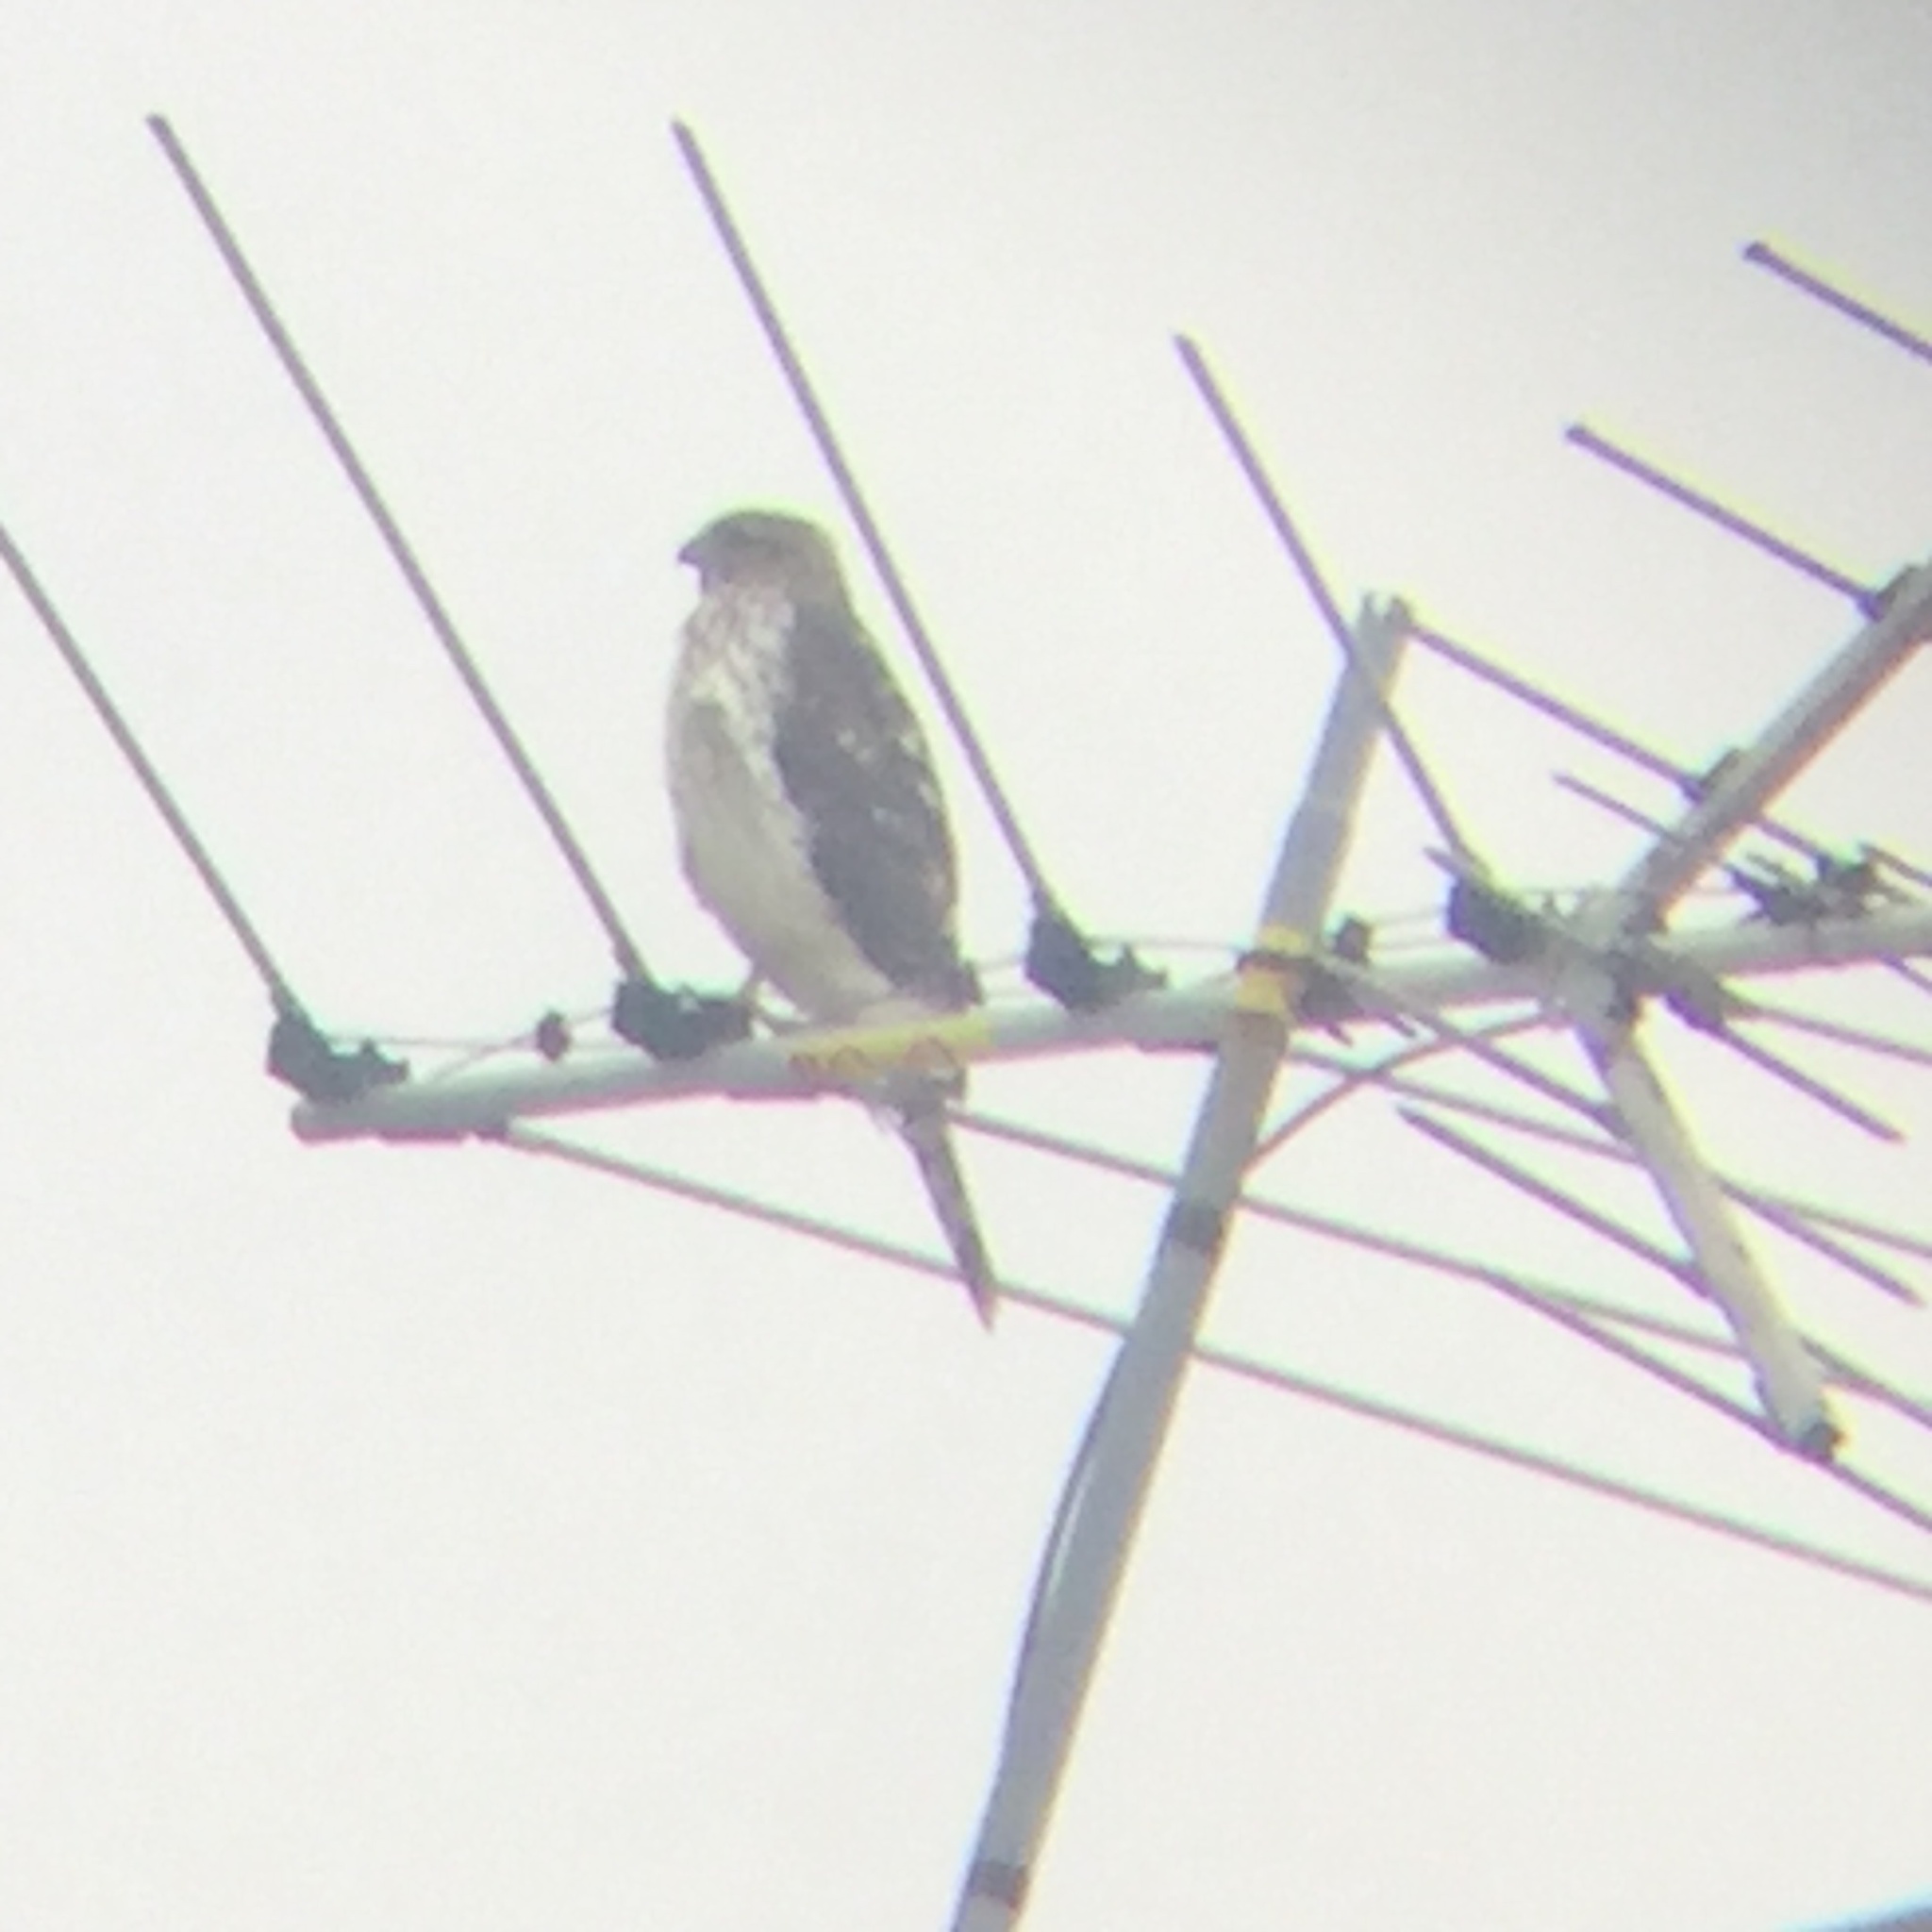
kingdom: Animalia
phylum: Chordata
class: Aves
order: Accipitriformes
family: Accipitridae
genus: Accipiter
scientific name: Accipiter cooperii
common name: Cooper's hawk
